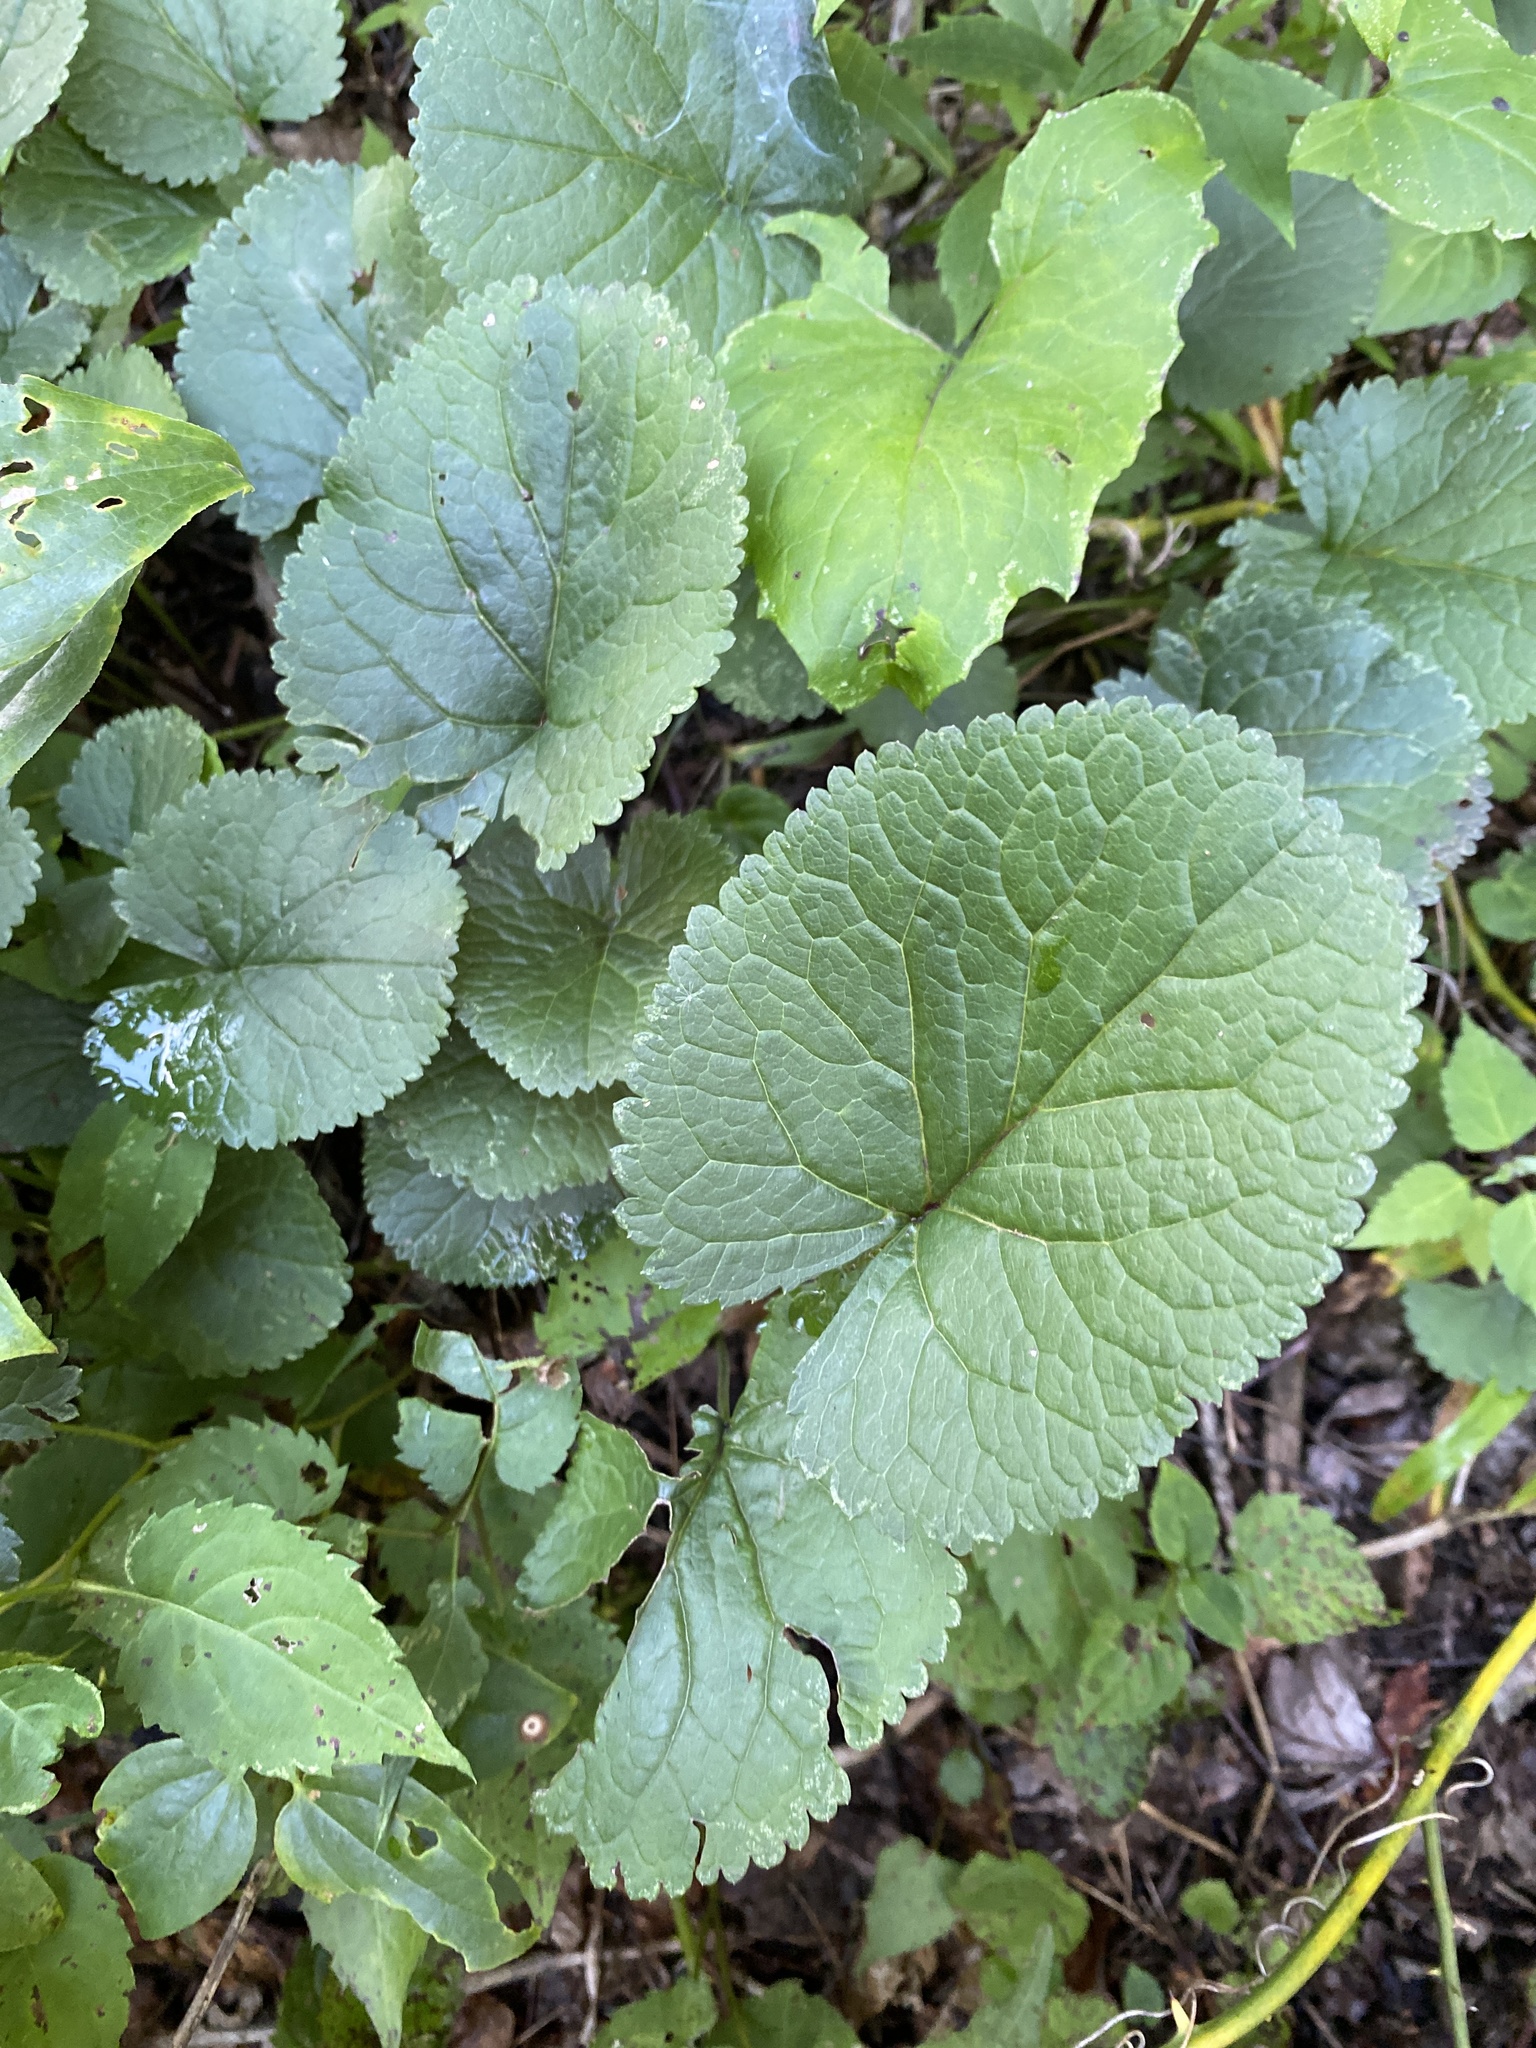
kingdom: Plantae
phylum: Tracheophyta
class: Magnoliopsida
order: Asterales
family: Asteraceae
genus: Packera
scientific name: Packera aurea
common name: Golden groundsel
